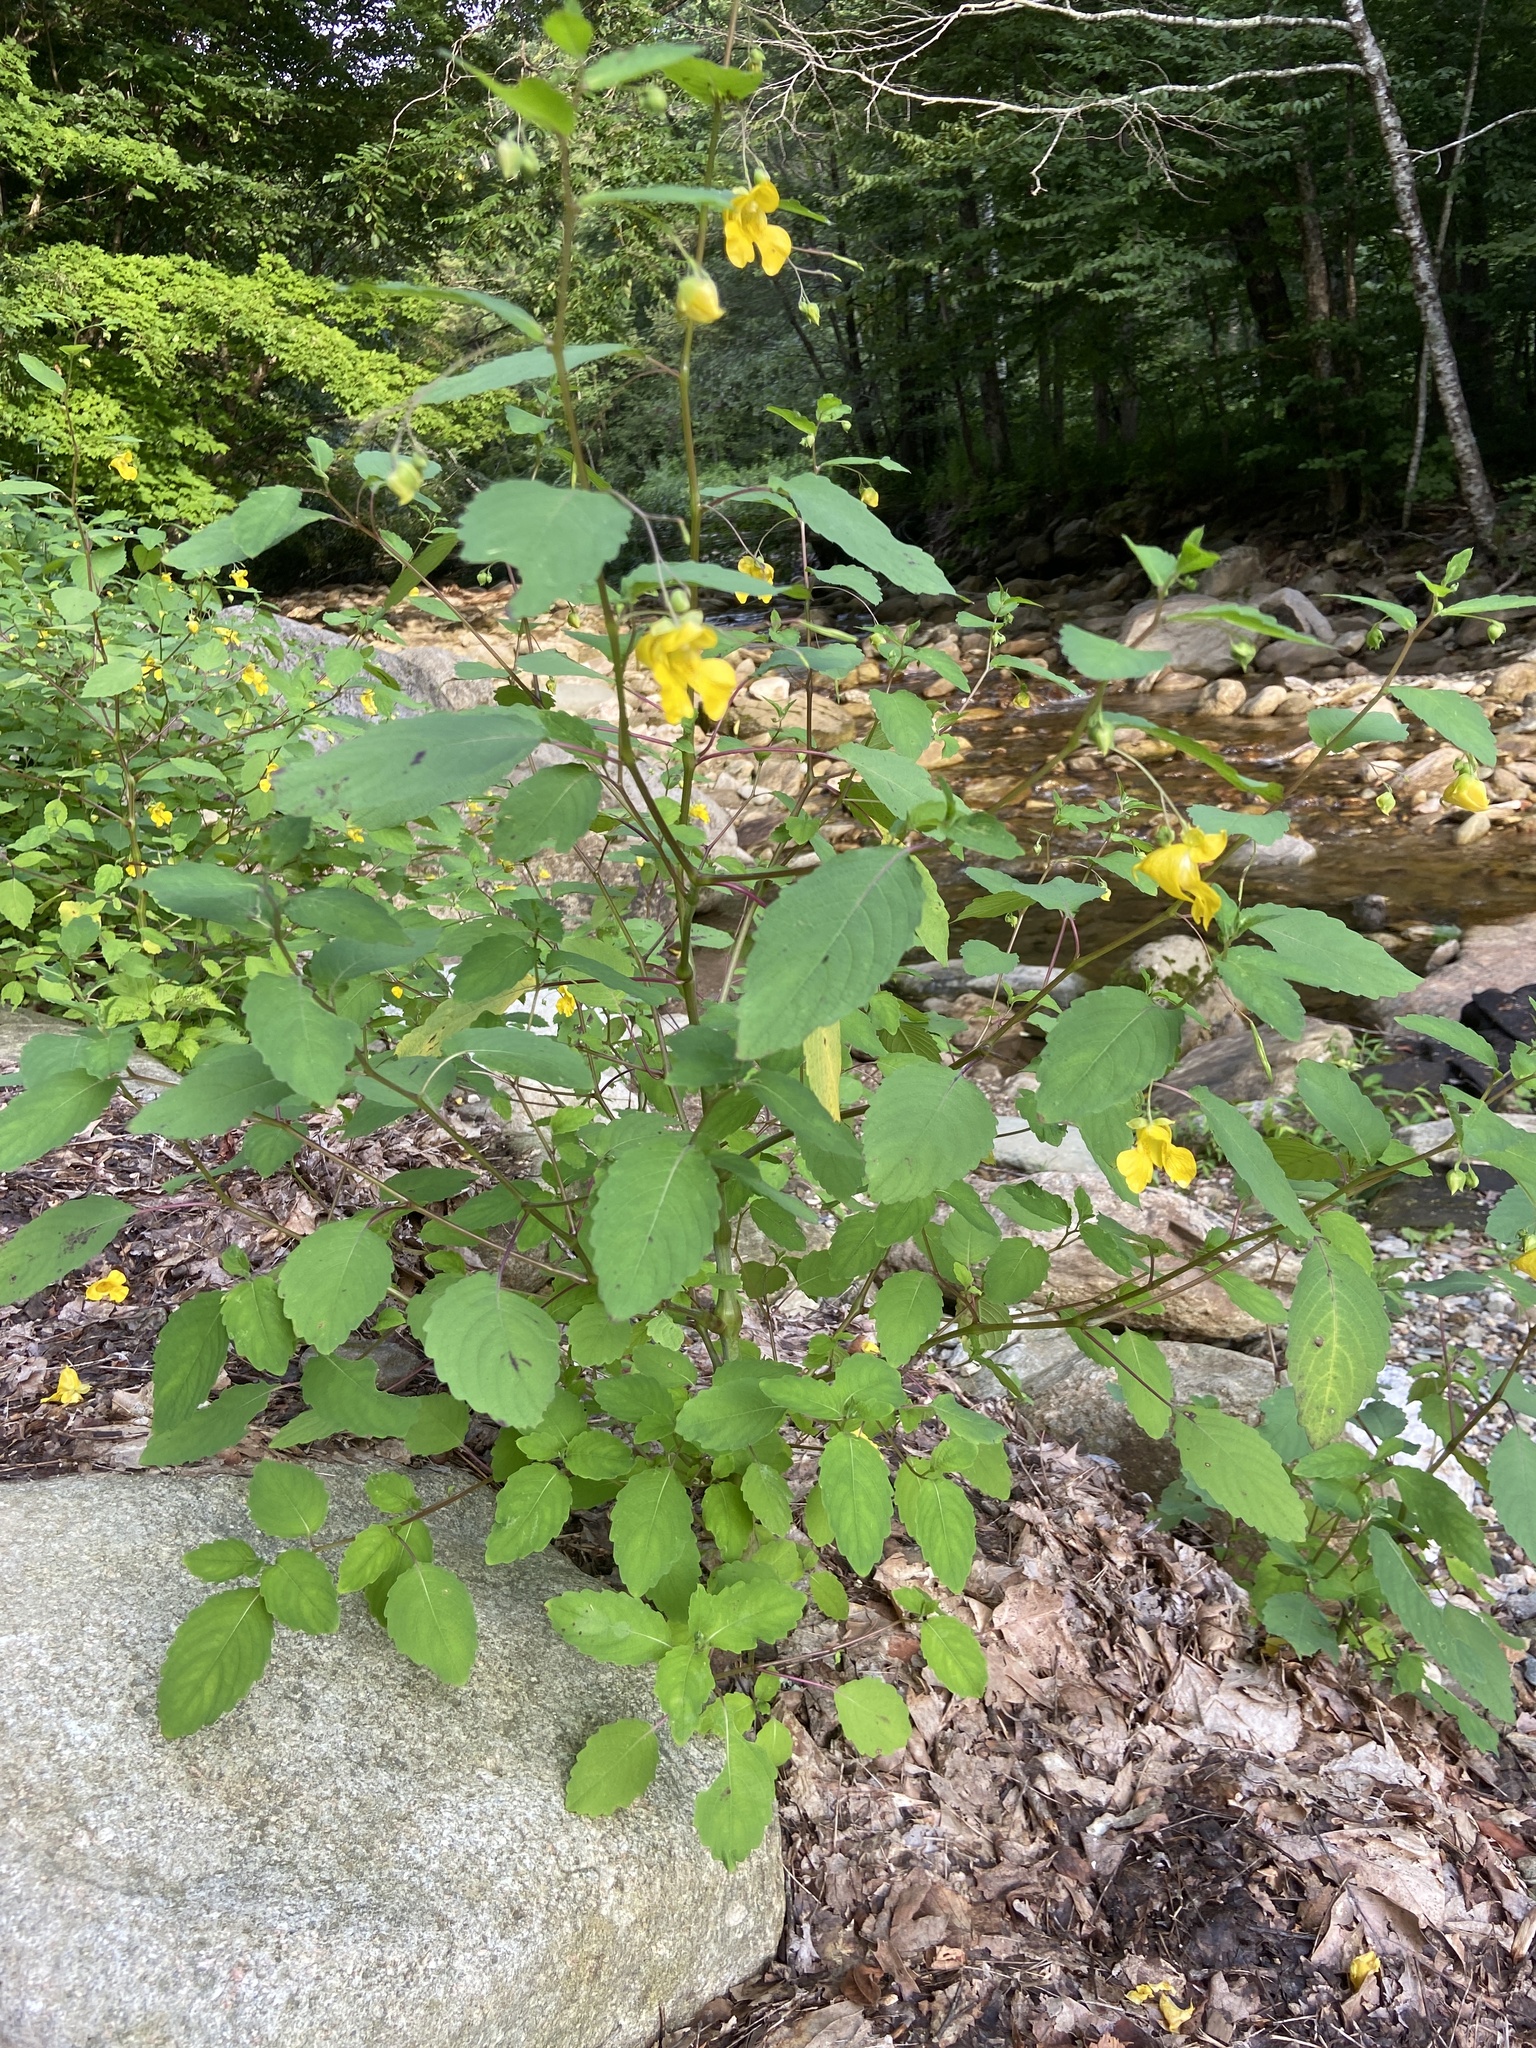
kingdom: Plantae
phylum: Tracheophyta
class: Magnoliopsida
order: Ericales
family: Balsaminaceae
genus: Impatiens
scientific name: Impatiens pallida
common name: Pale snapweed
